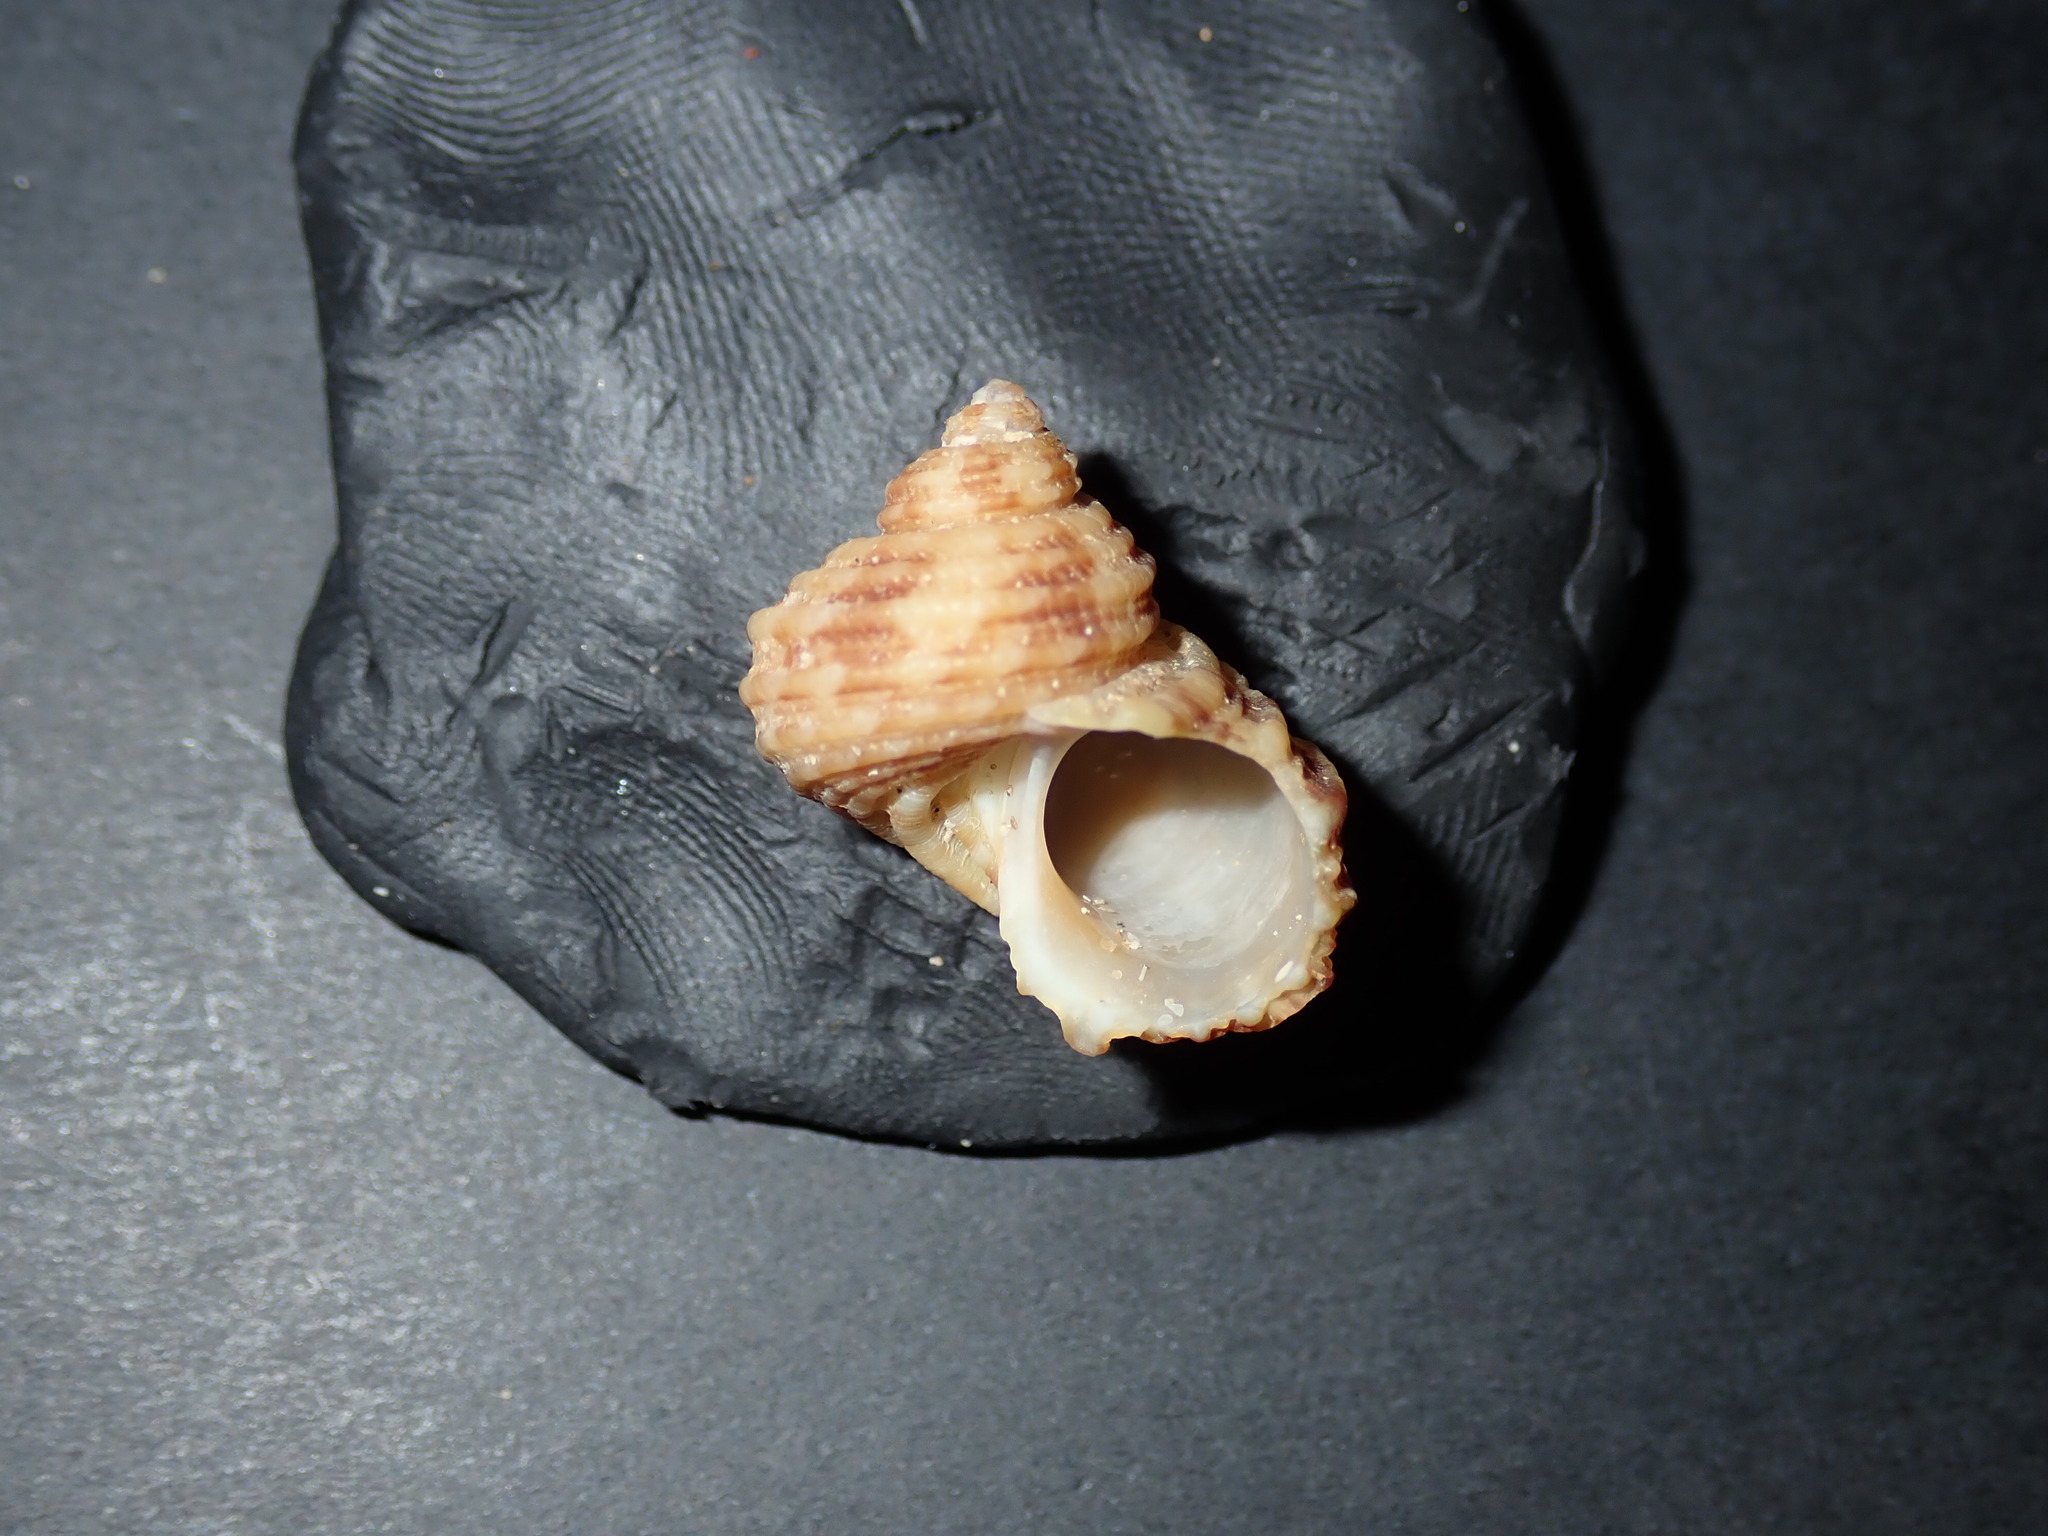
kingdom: Animalia
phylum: Mollusca
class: Gastropoda
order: Trochida
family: Turbinidae
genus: Turbo
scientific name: Turbo laminiferus
